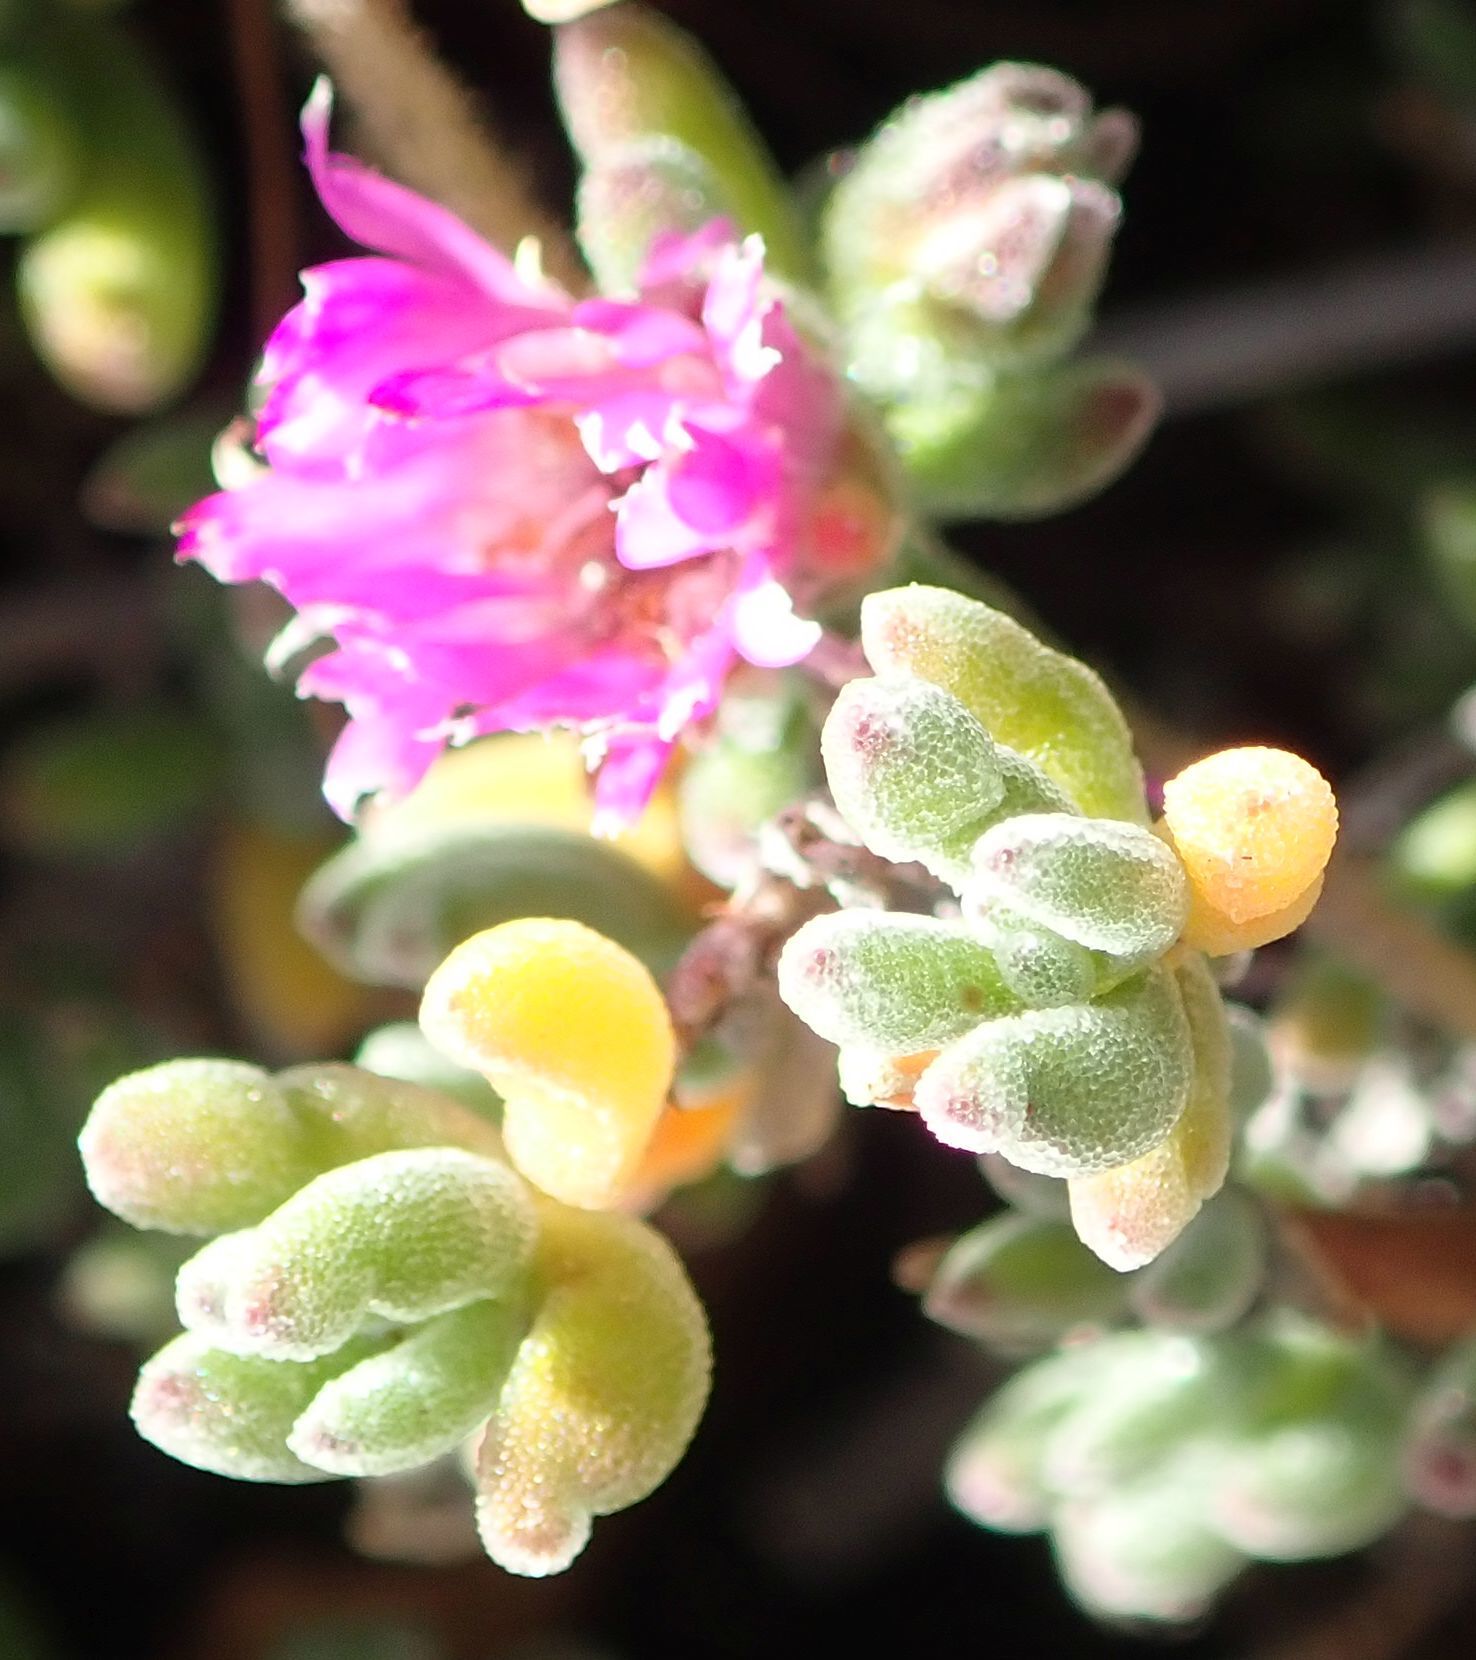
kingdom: Plantae
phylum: Tracheophyta
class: Magnoliopsida
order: Caryophyllales
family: Aizoaceae
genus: Drosanthemum
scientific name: Drosanthemum floribundum
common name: Pale dewplant
